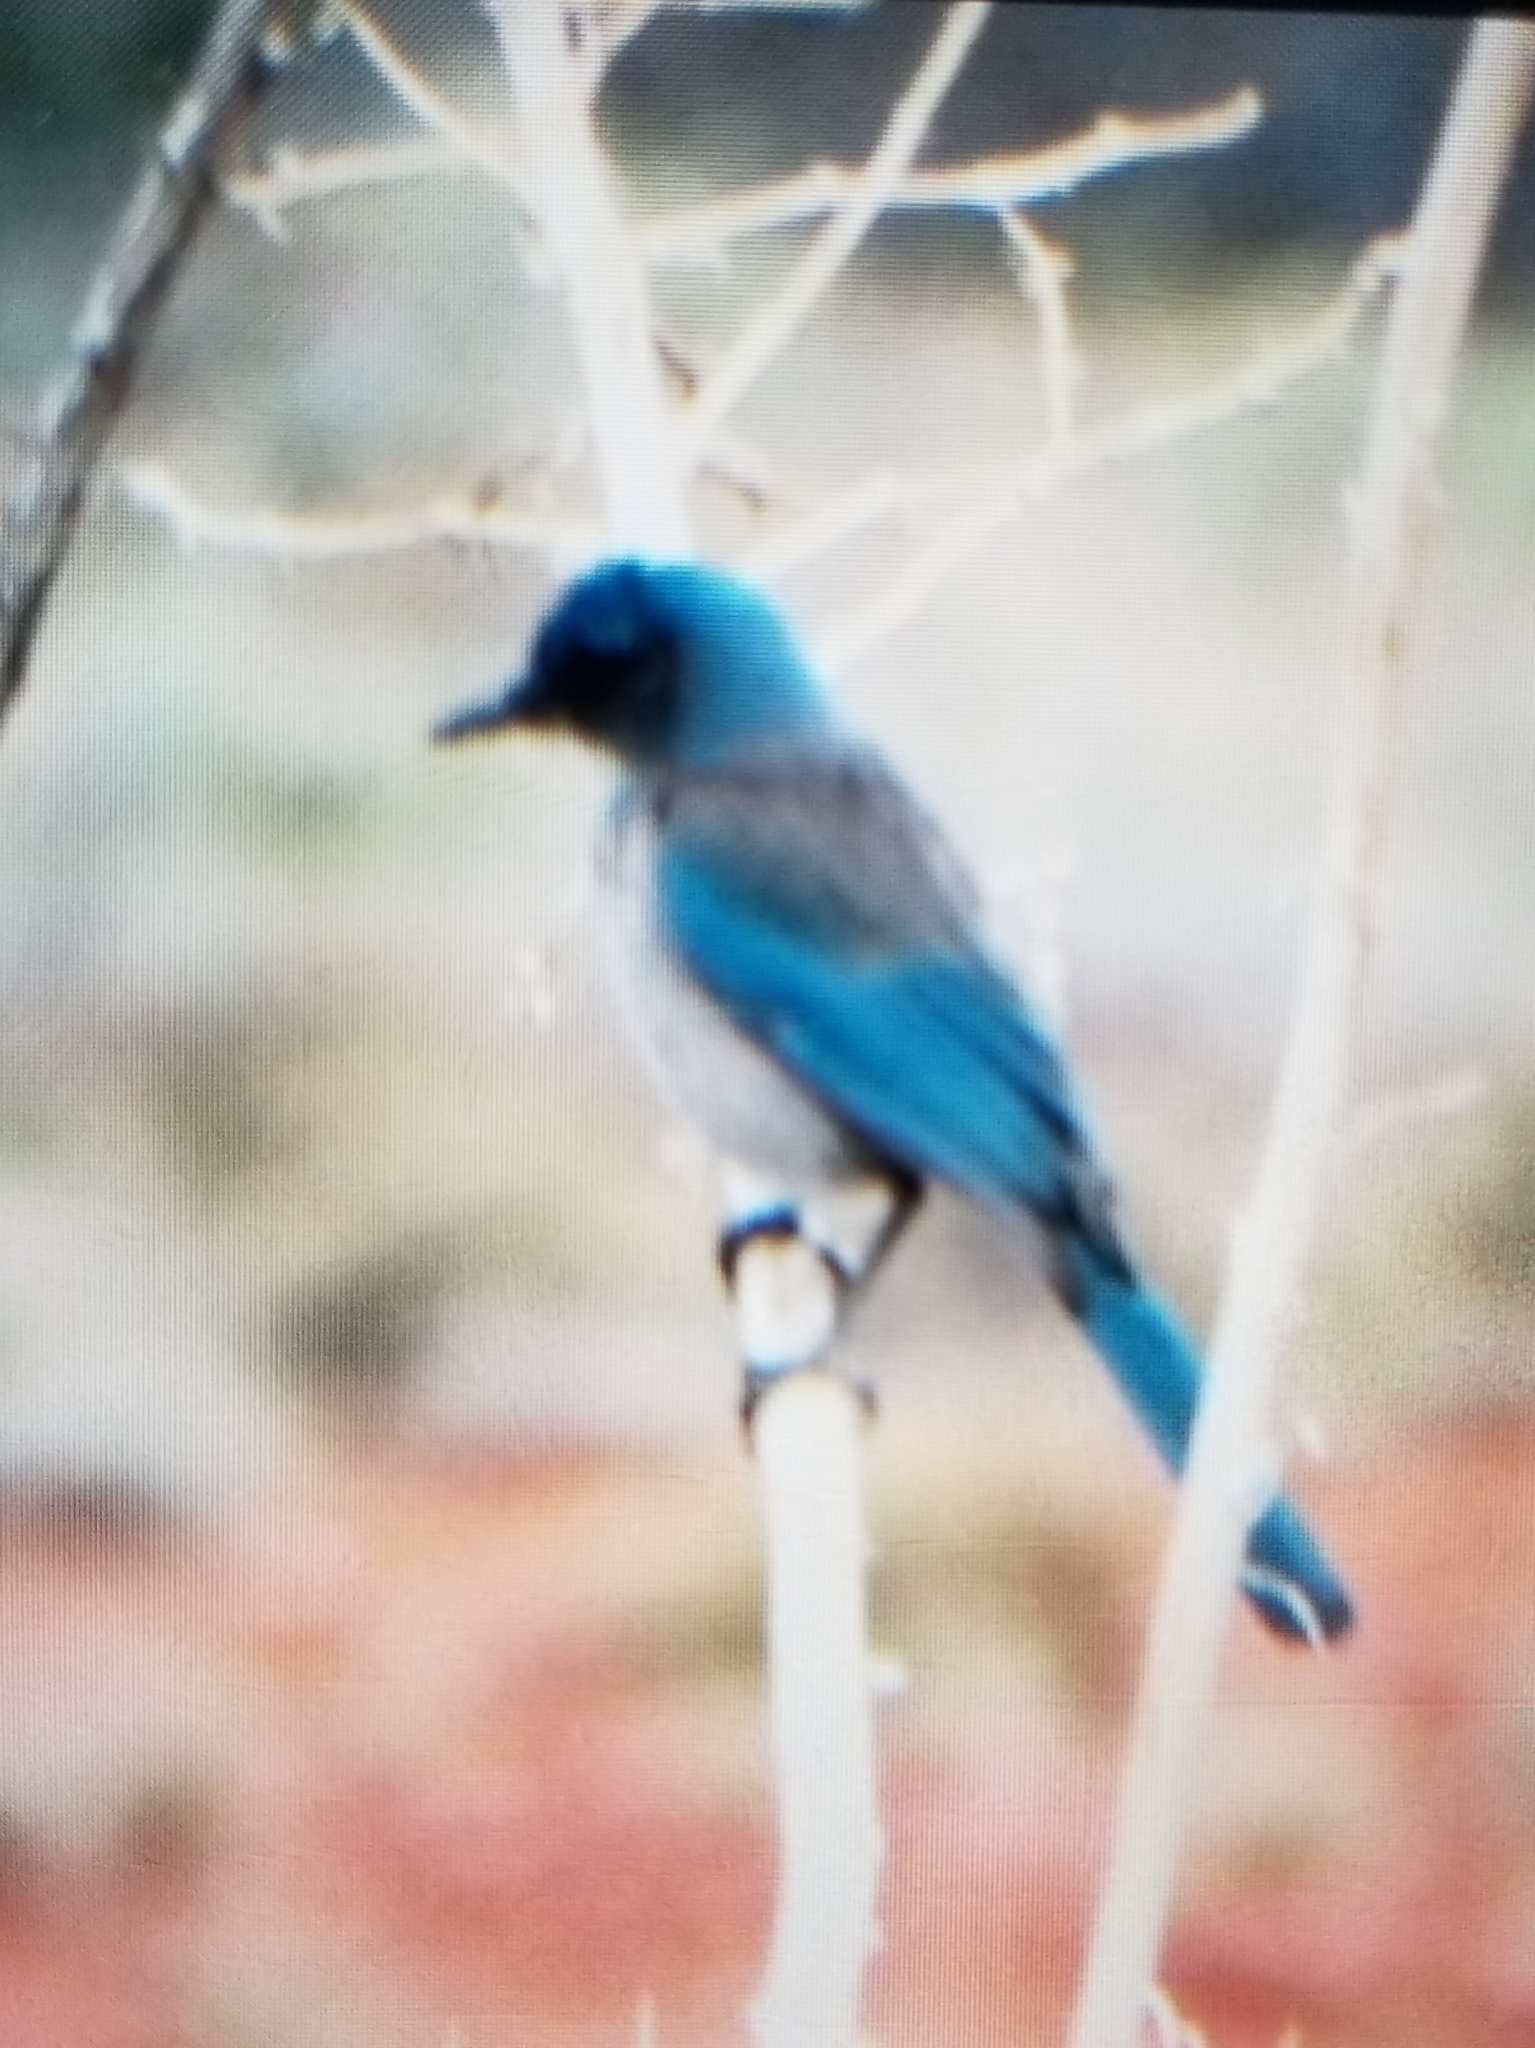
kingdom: Animalia
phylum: Chordata
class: Aves
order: Passeriformes
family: Corvidae
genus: Aphelocoma
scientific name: Aphelocoma woodhouseii
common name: Woodhouse's scrub-jay
